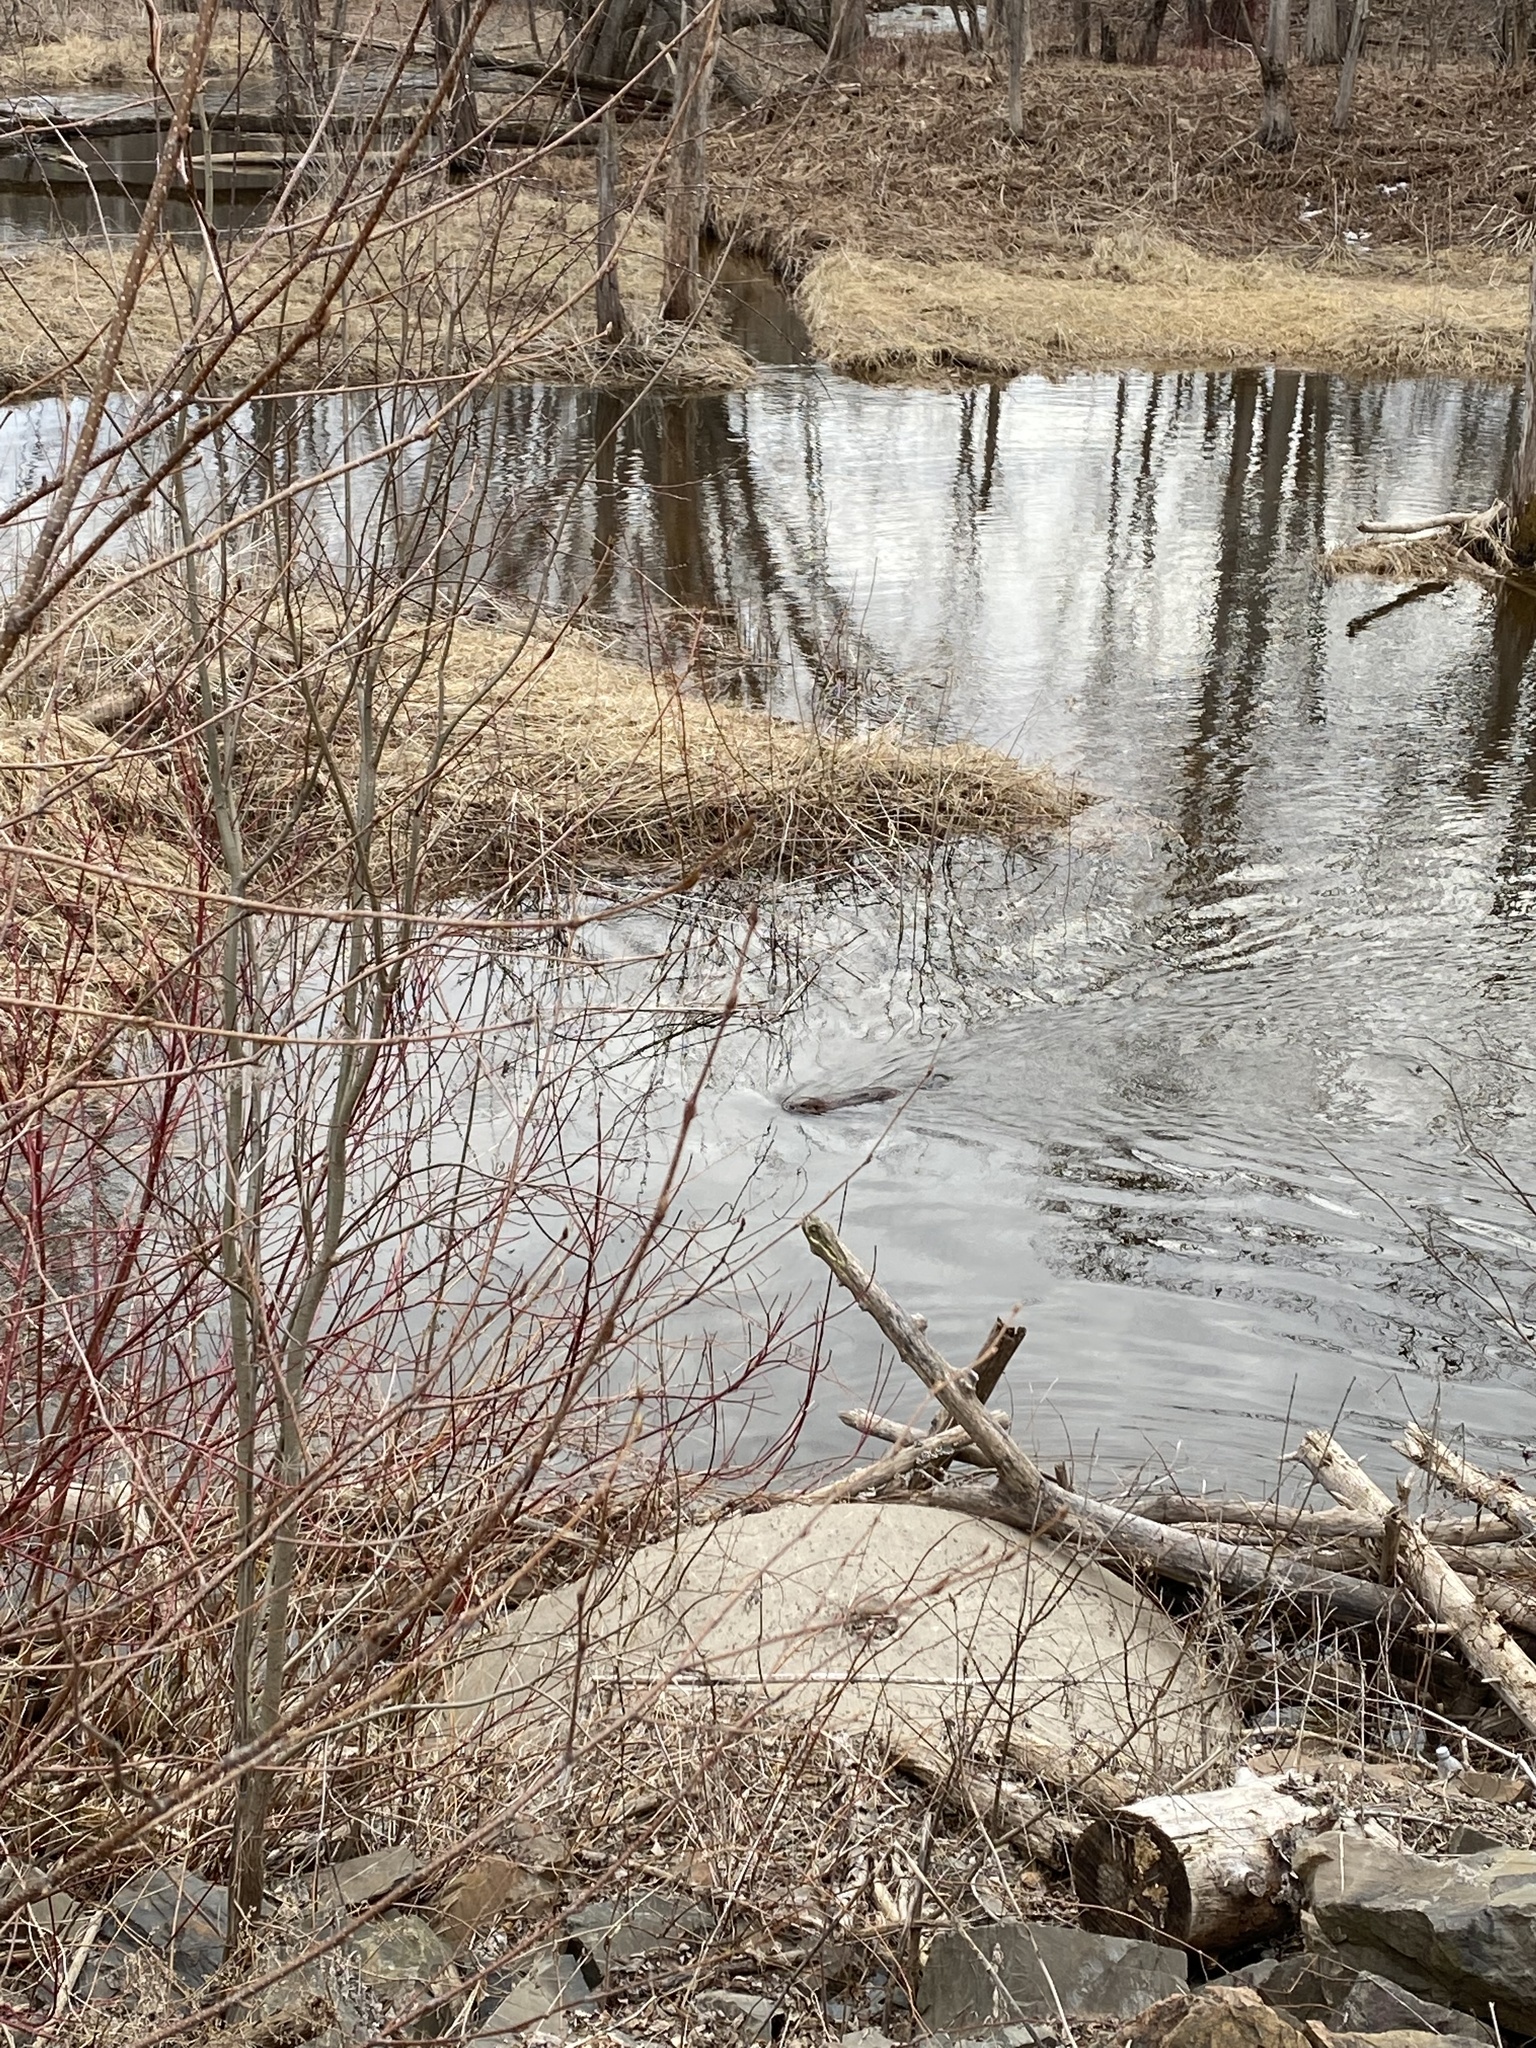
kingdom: Animalia
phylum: Chordata
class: Mammalia
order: Rodentia
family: Castoridae
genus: Castor
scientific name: Castor canadensis
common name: American beaver
